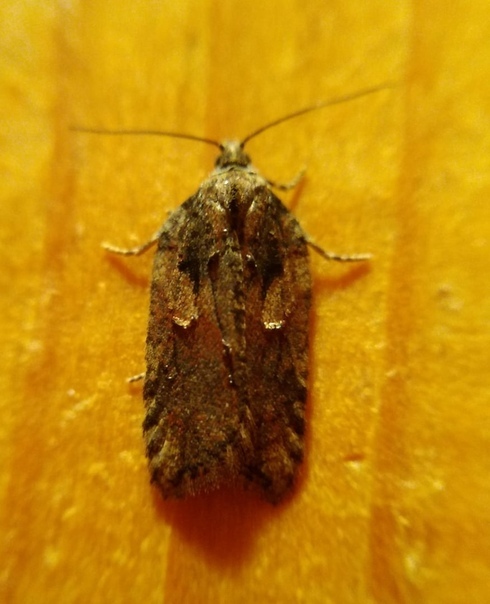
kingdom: Animalia
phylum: Arthropoda
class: Insecta
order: Lepidoptera
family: Tortricidae
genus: Acleris
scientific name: Acleris hastiana
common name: Sallow button
